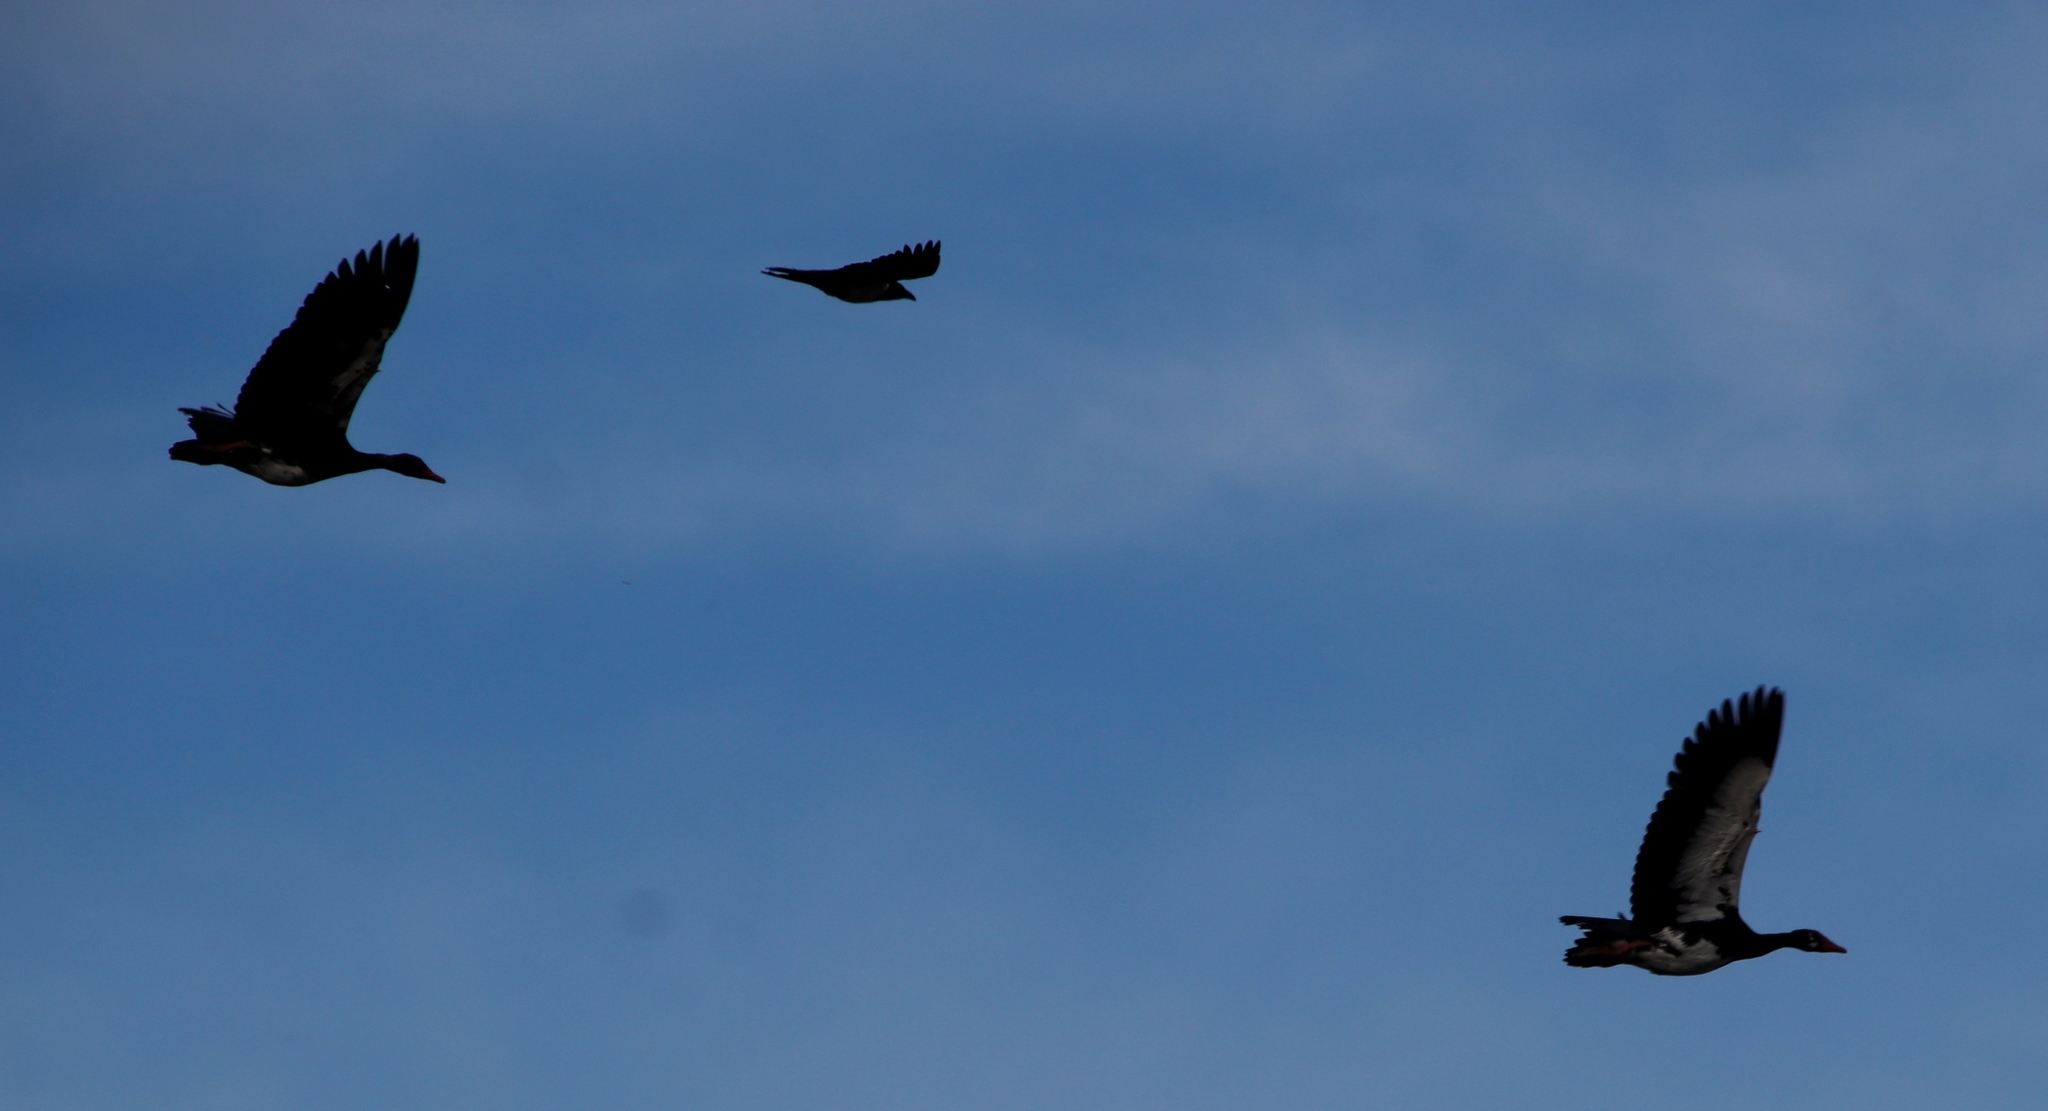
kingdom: Animalia
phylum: Chordata
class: Aves
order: Anseriformes
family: Anatidae
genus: Plectropterus
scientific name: Plectropterus gambensis
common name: Spur-winged goose
